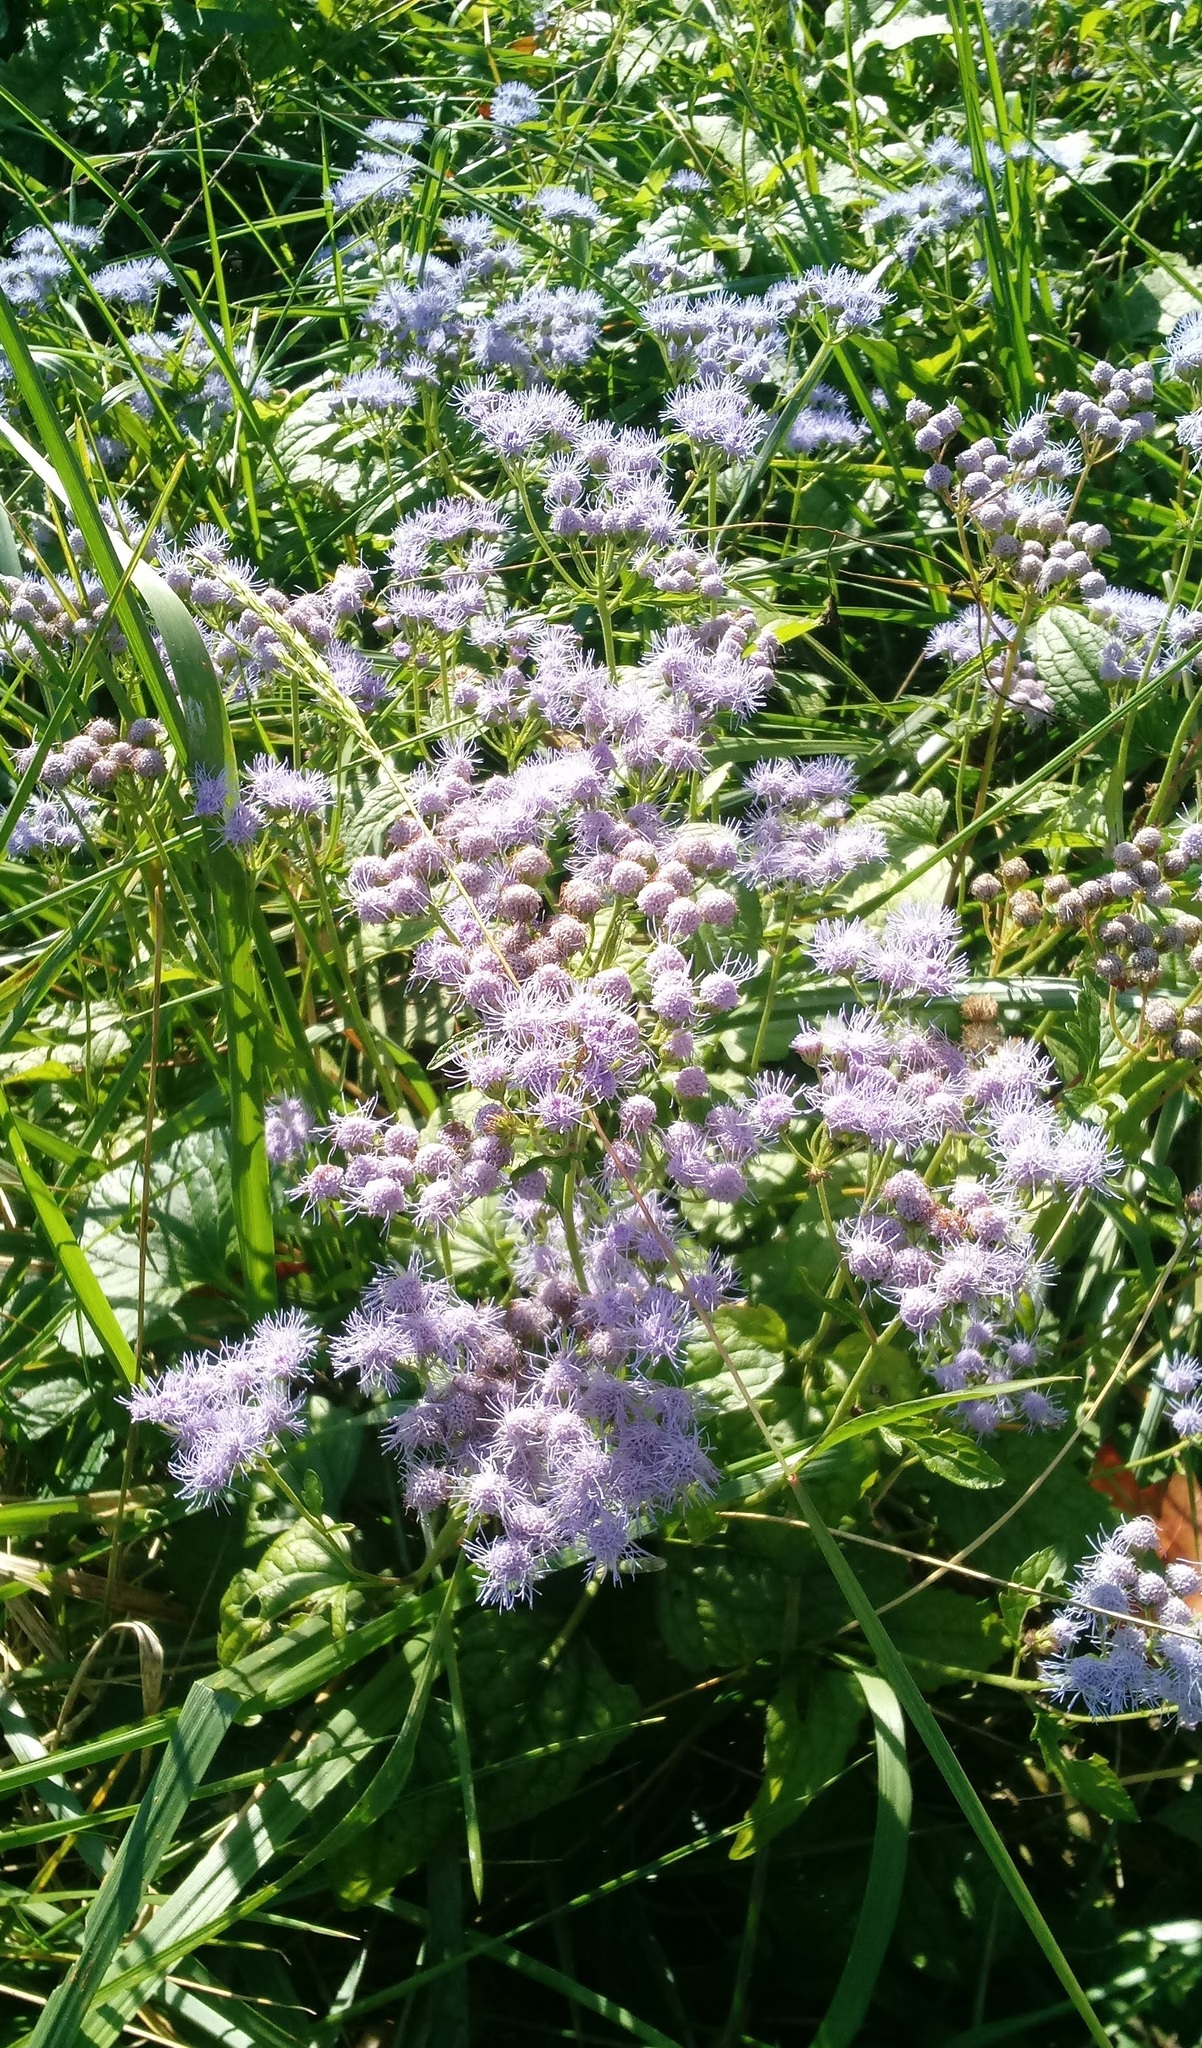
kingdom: Plantae
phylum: Tracheophyta
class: Magnoliopsida
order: Asterales
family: Asteraceae
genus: Conoclinium
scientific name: Conoclinium coelestinum
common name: Blue mistflower
